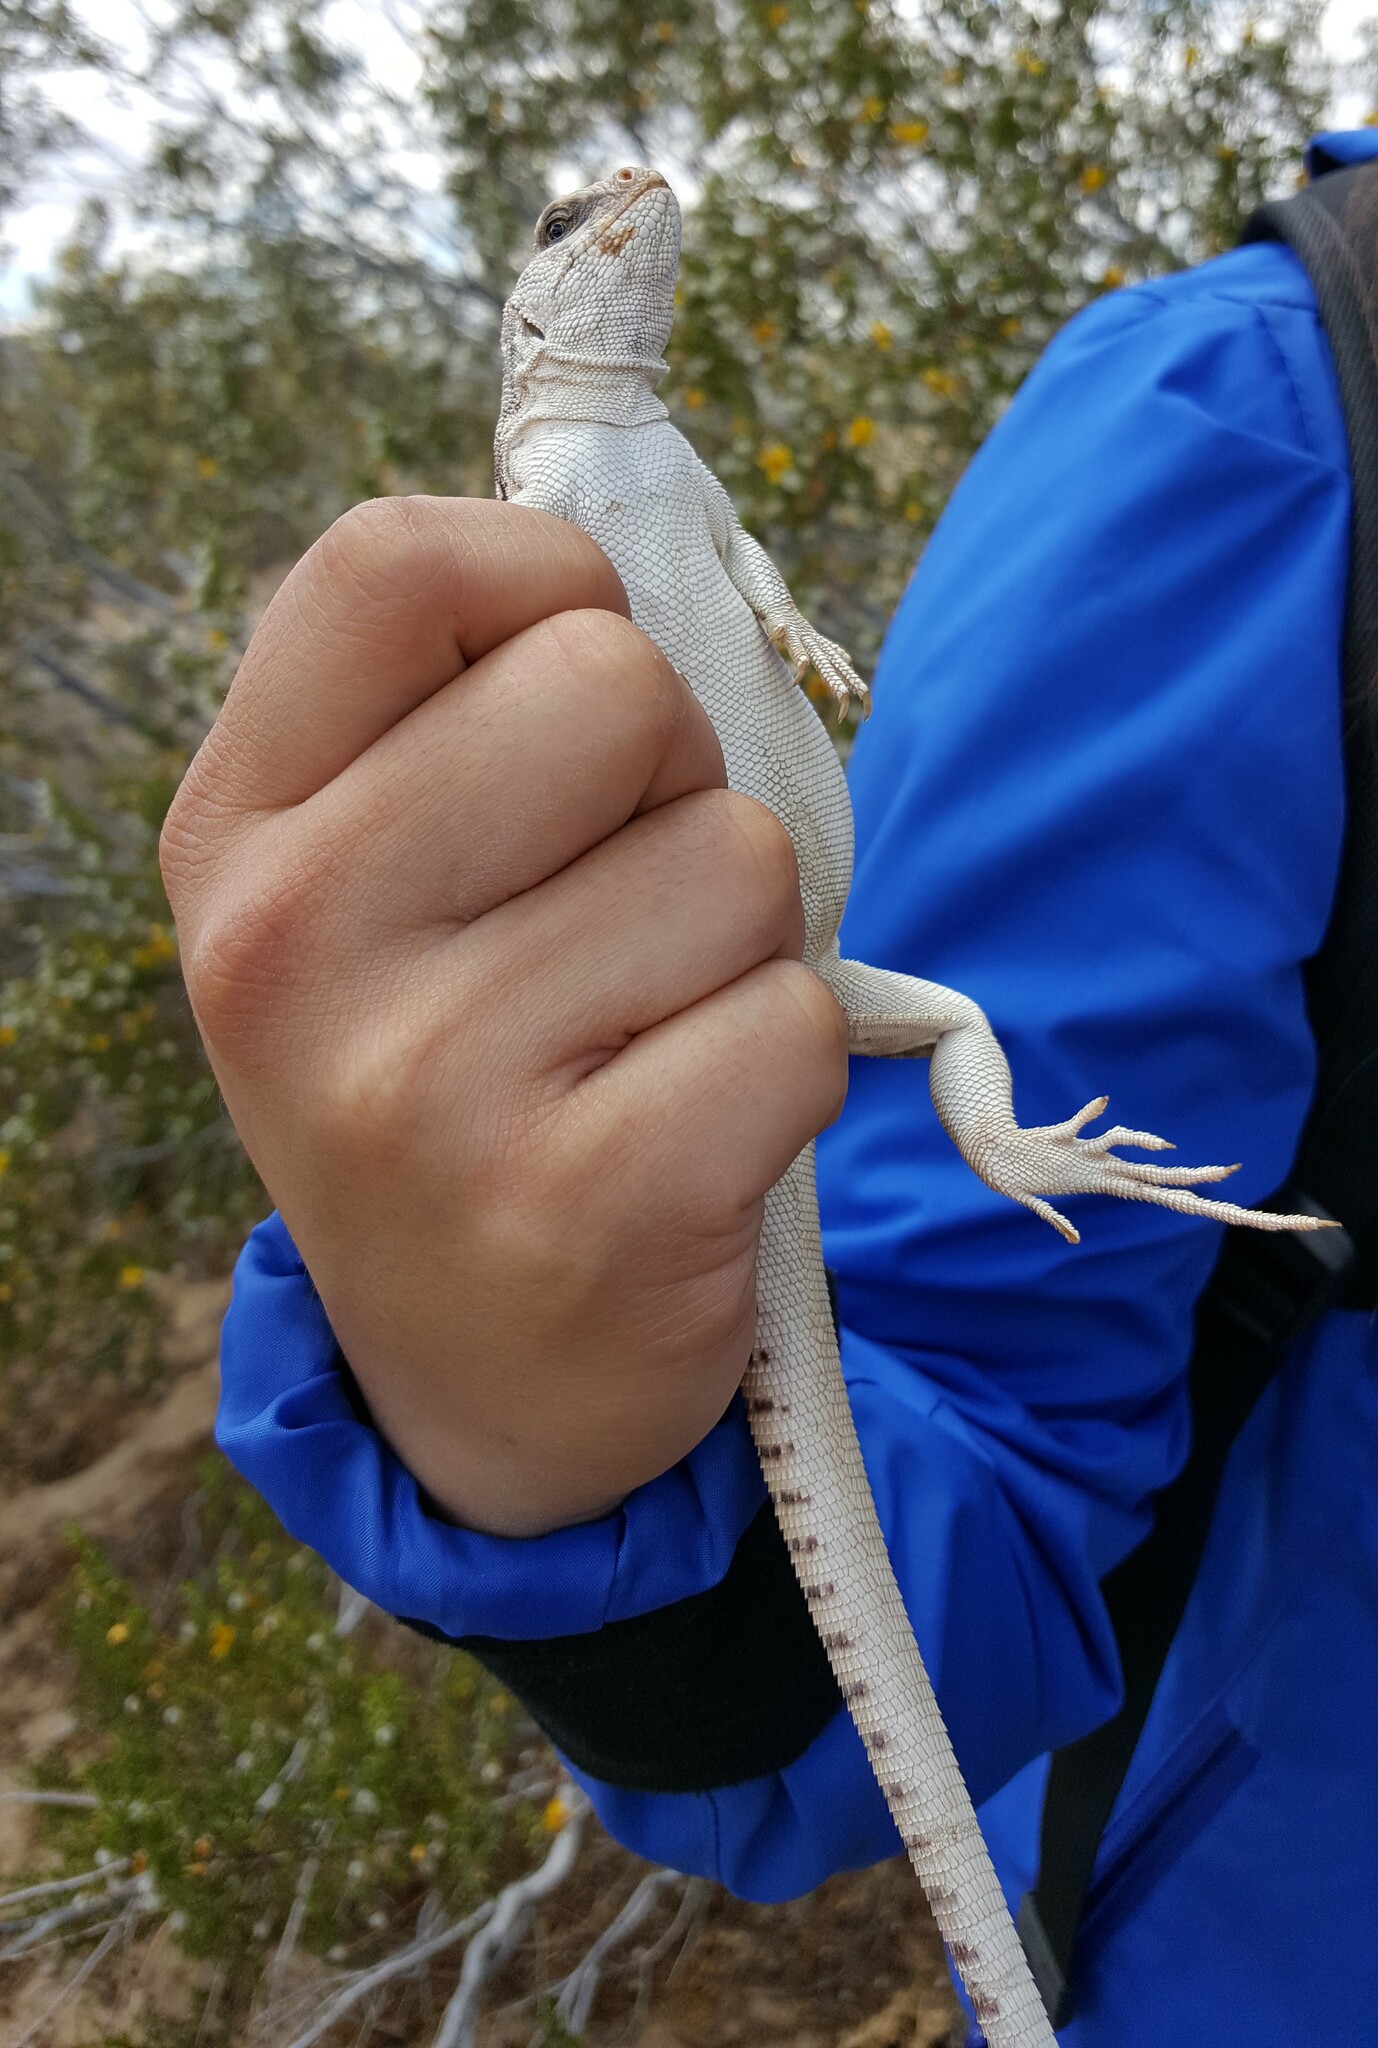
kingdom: Animalia
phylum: Chordata
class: Squamata
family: Iguanidae
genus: Dipsosaurus
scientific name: Dipsosaurus dorsalis
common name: Desert iguana
